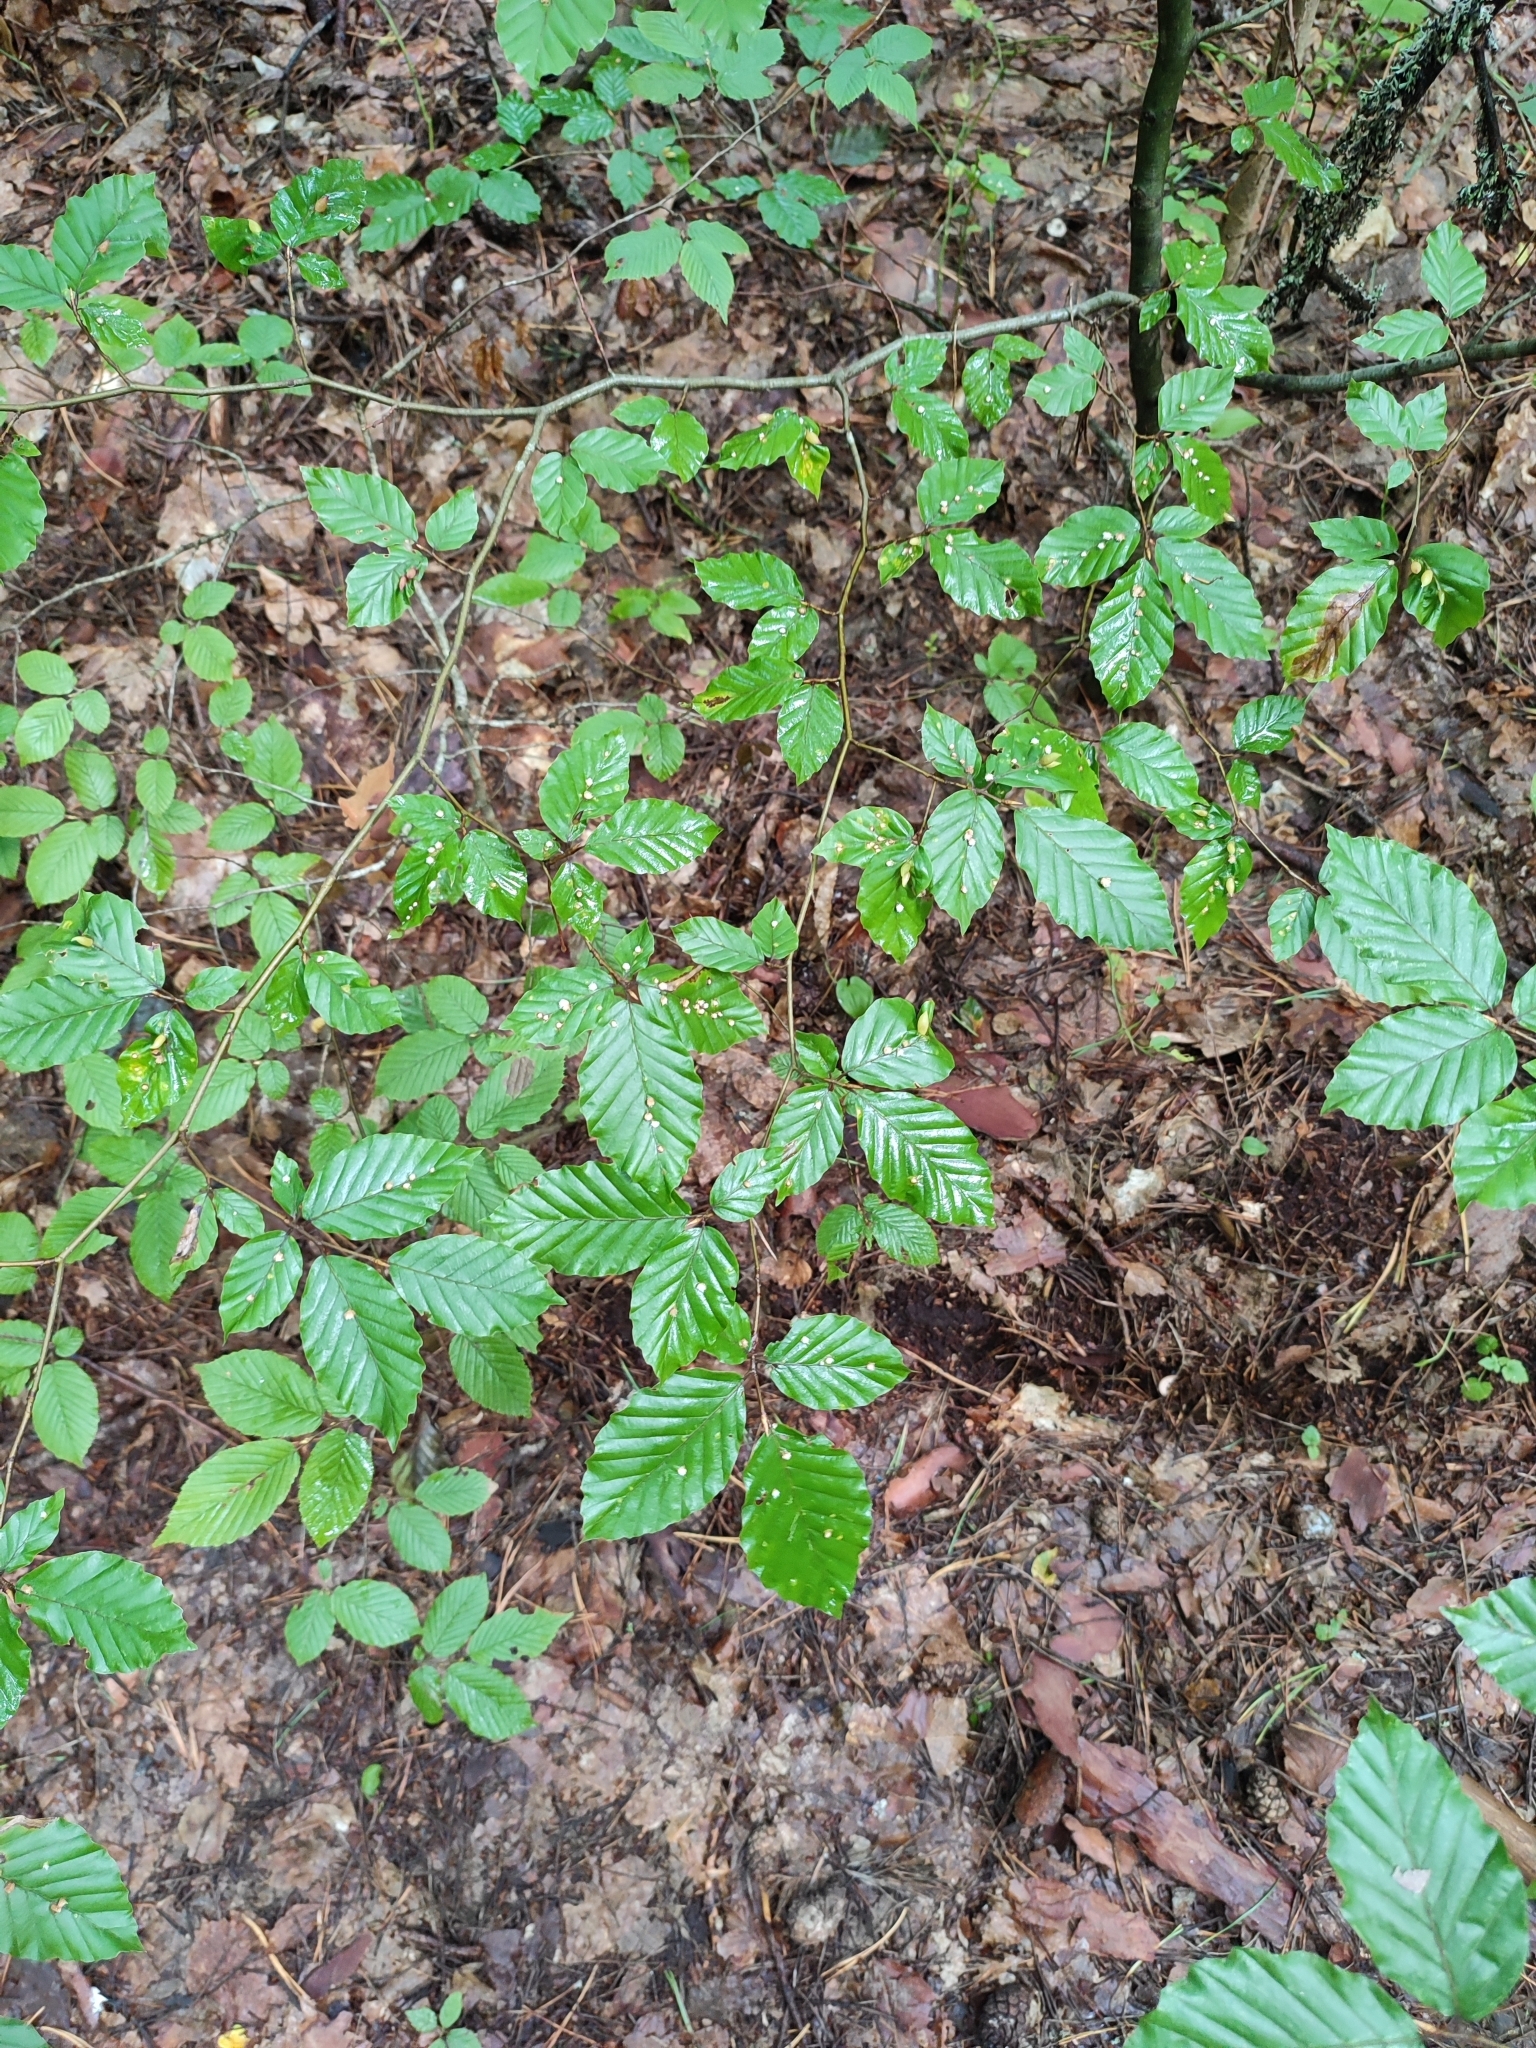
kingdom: Plantae
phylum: Tracheophyta
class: Magnoliopsida
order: Fagales
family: Fagaceae
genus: Fagus
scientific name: Fagus sylvatica
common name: Beech
